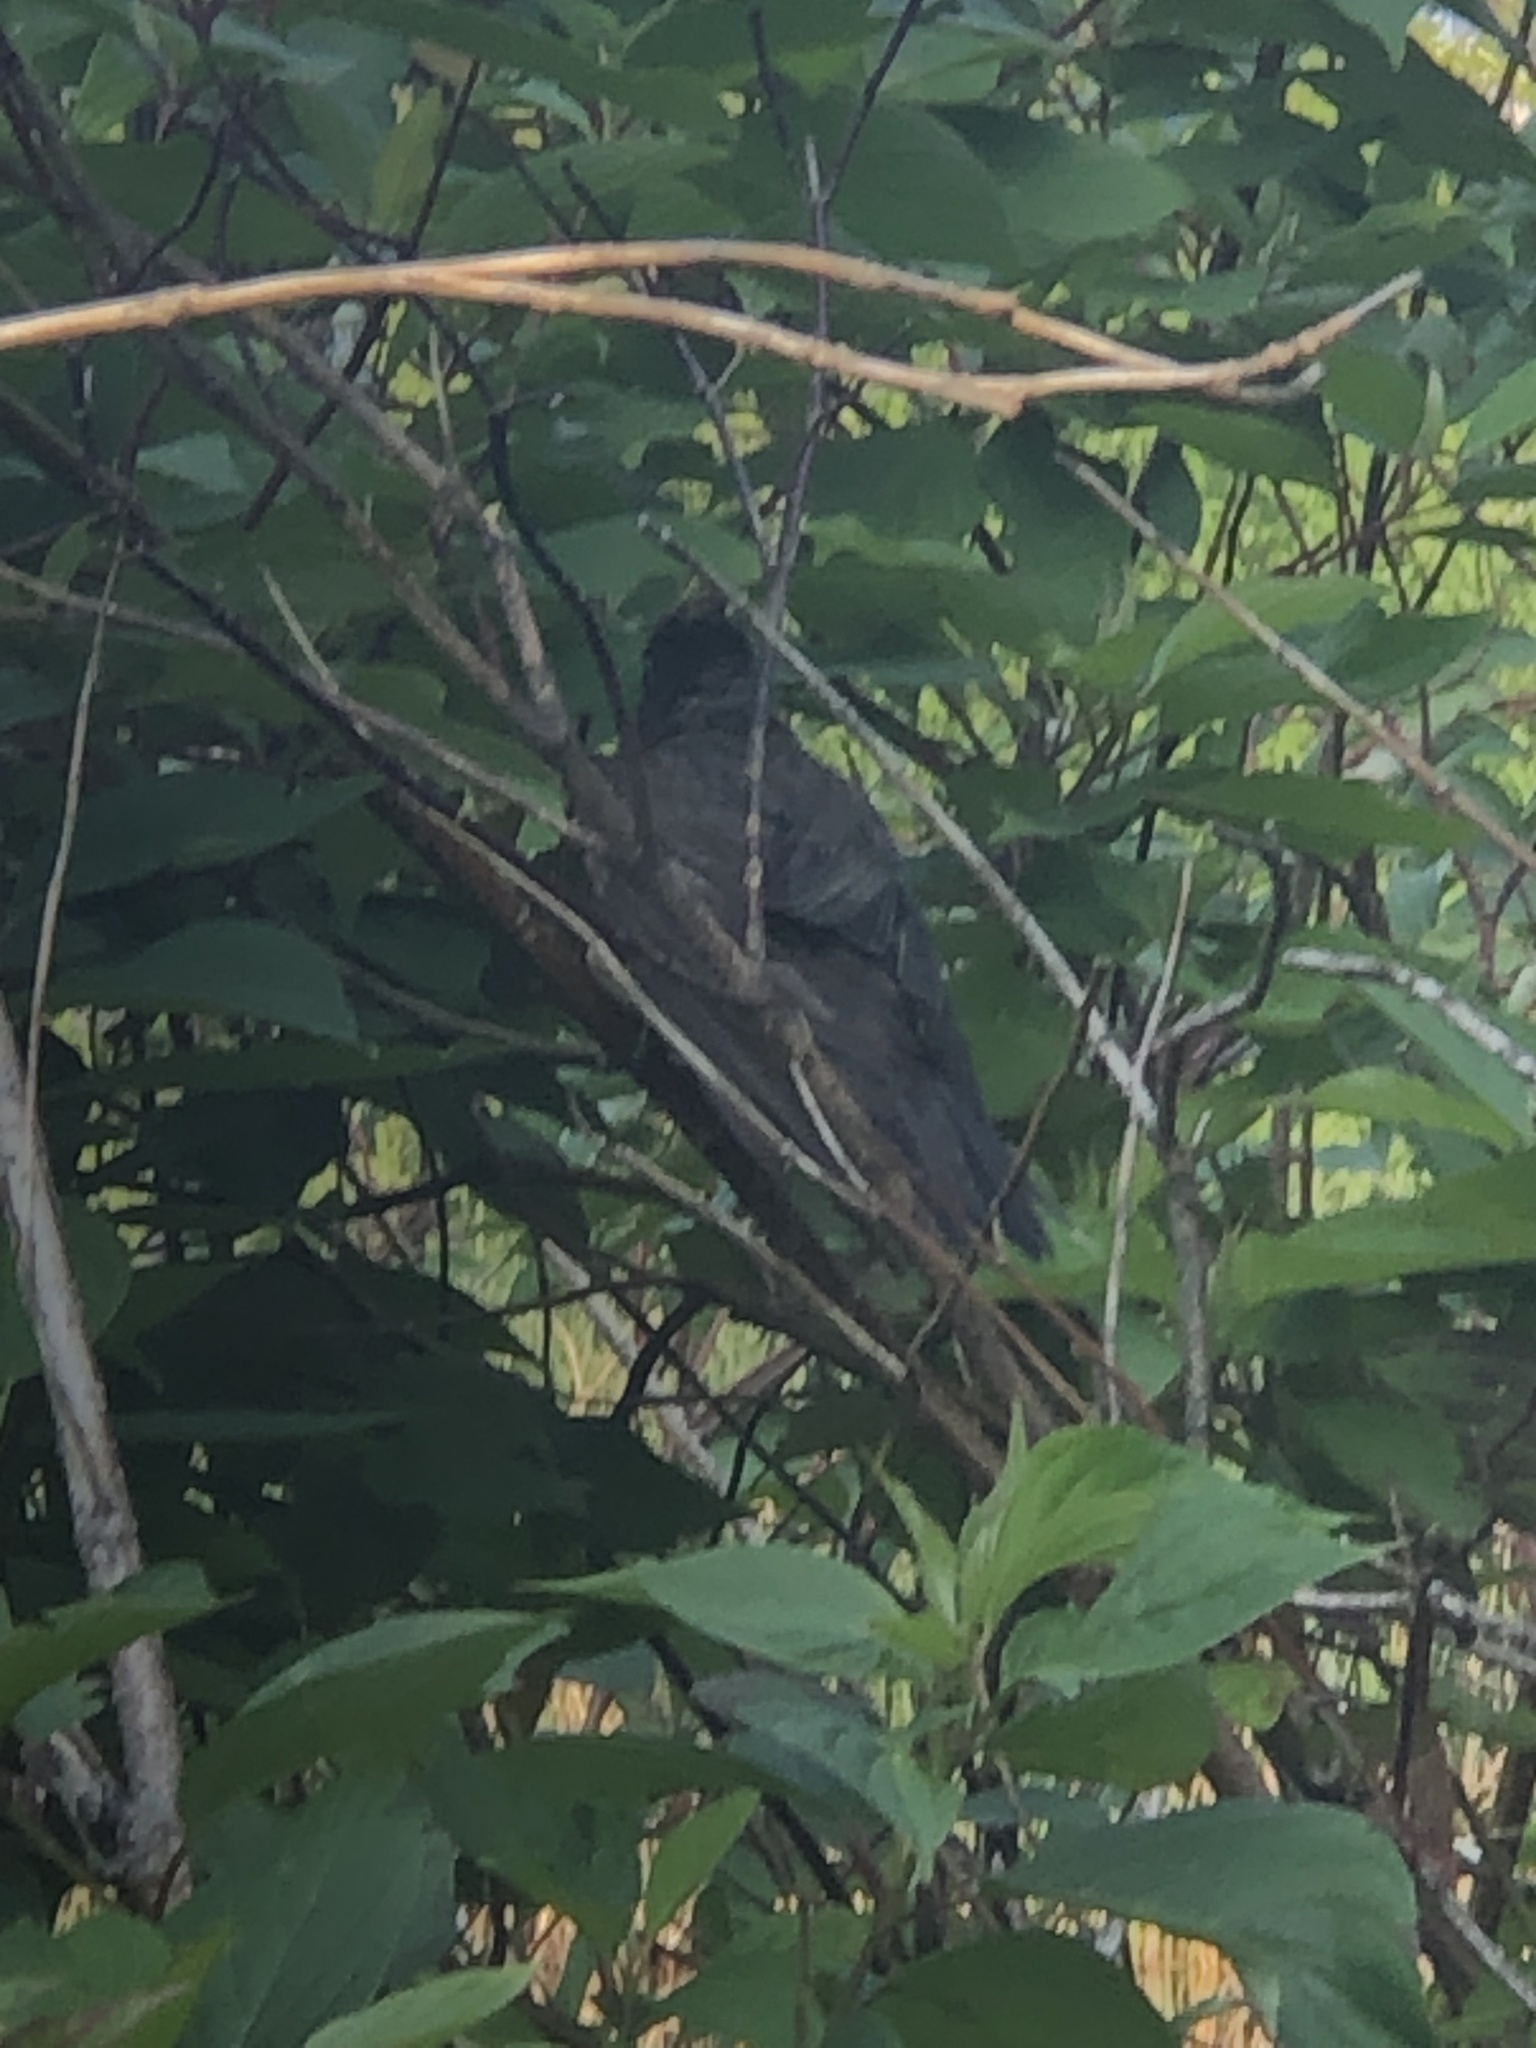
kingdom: Animalia
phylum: Chordata
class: Aves
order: Passeriformes
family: Turdidae
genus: Turdus
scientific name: Turdus migratorius
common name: American robin
